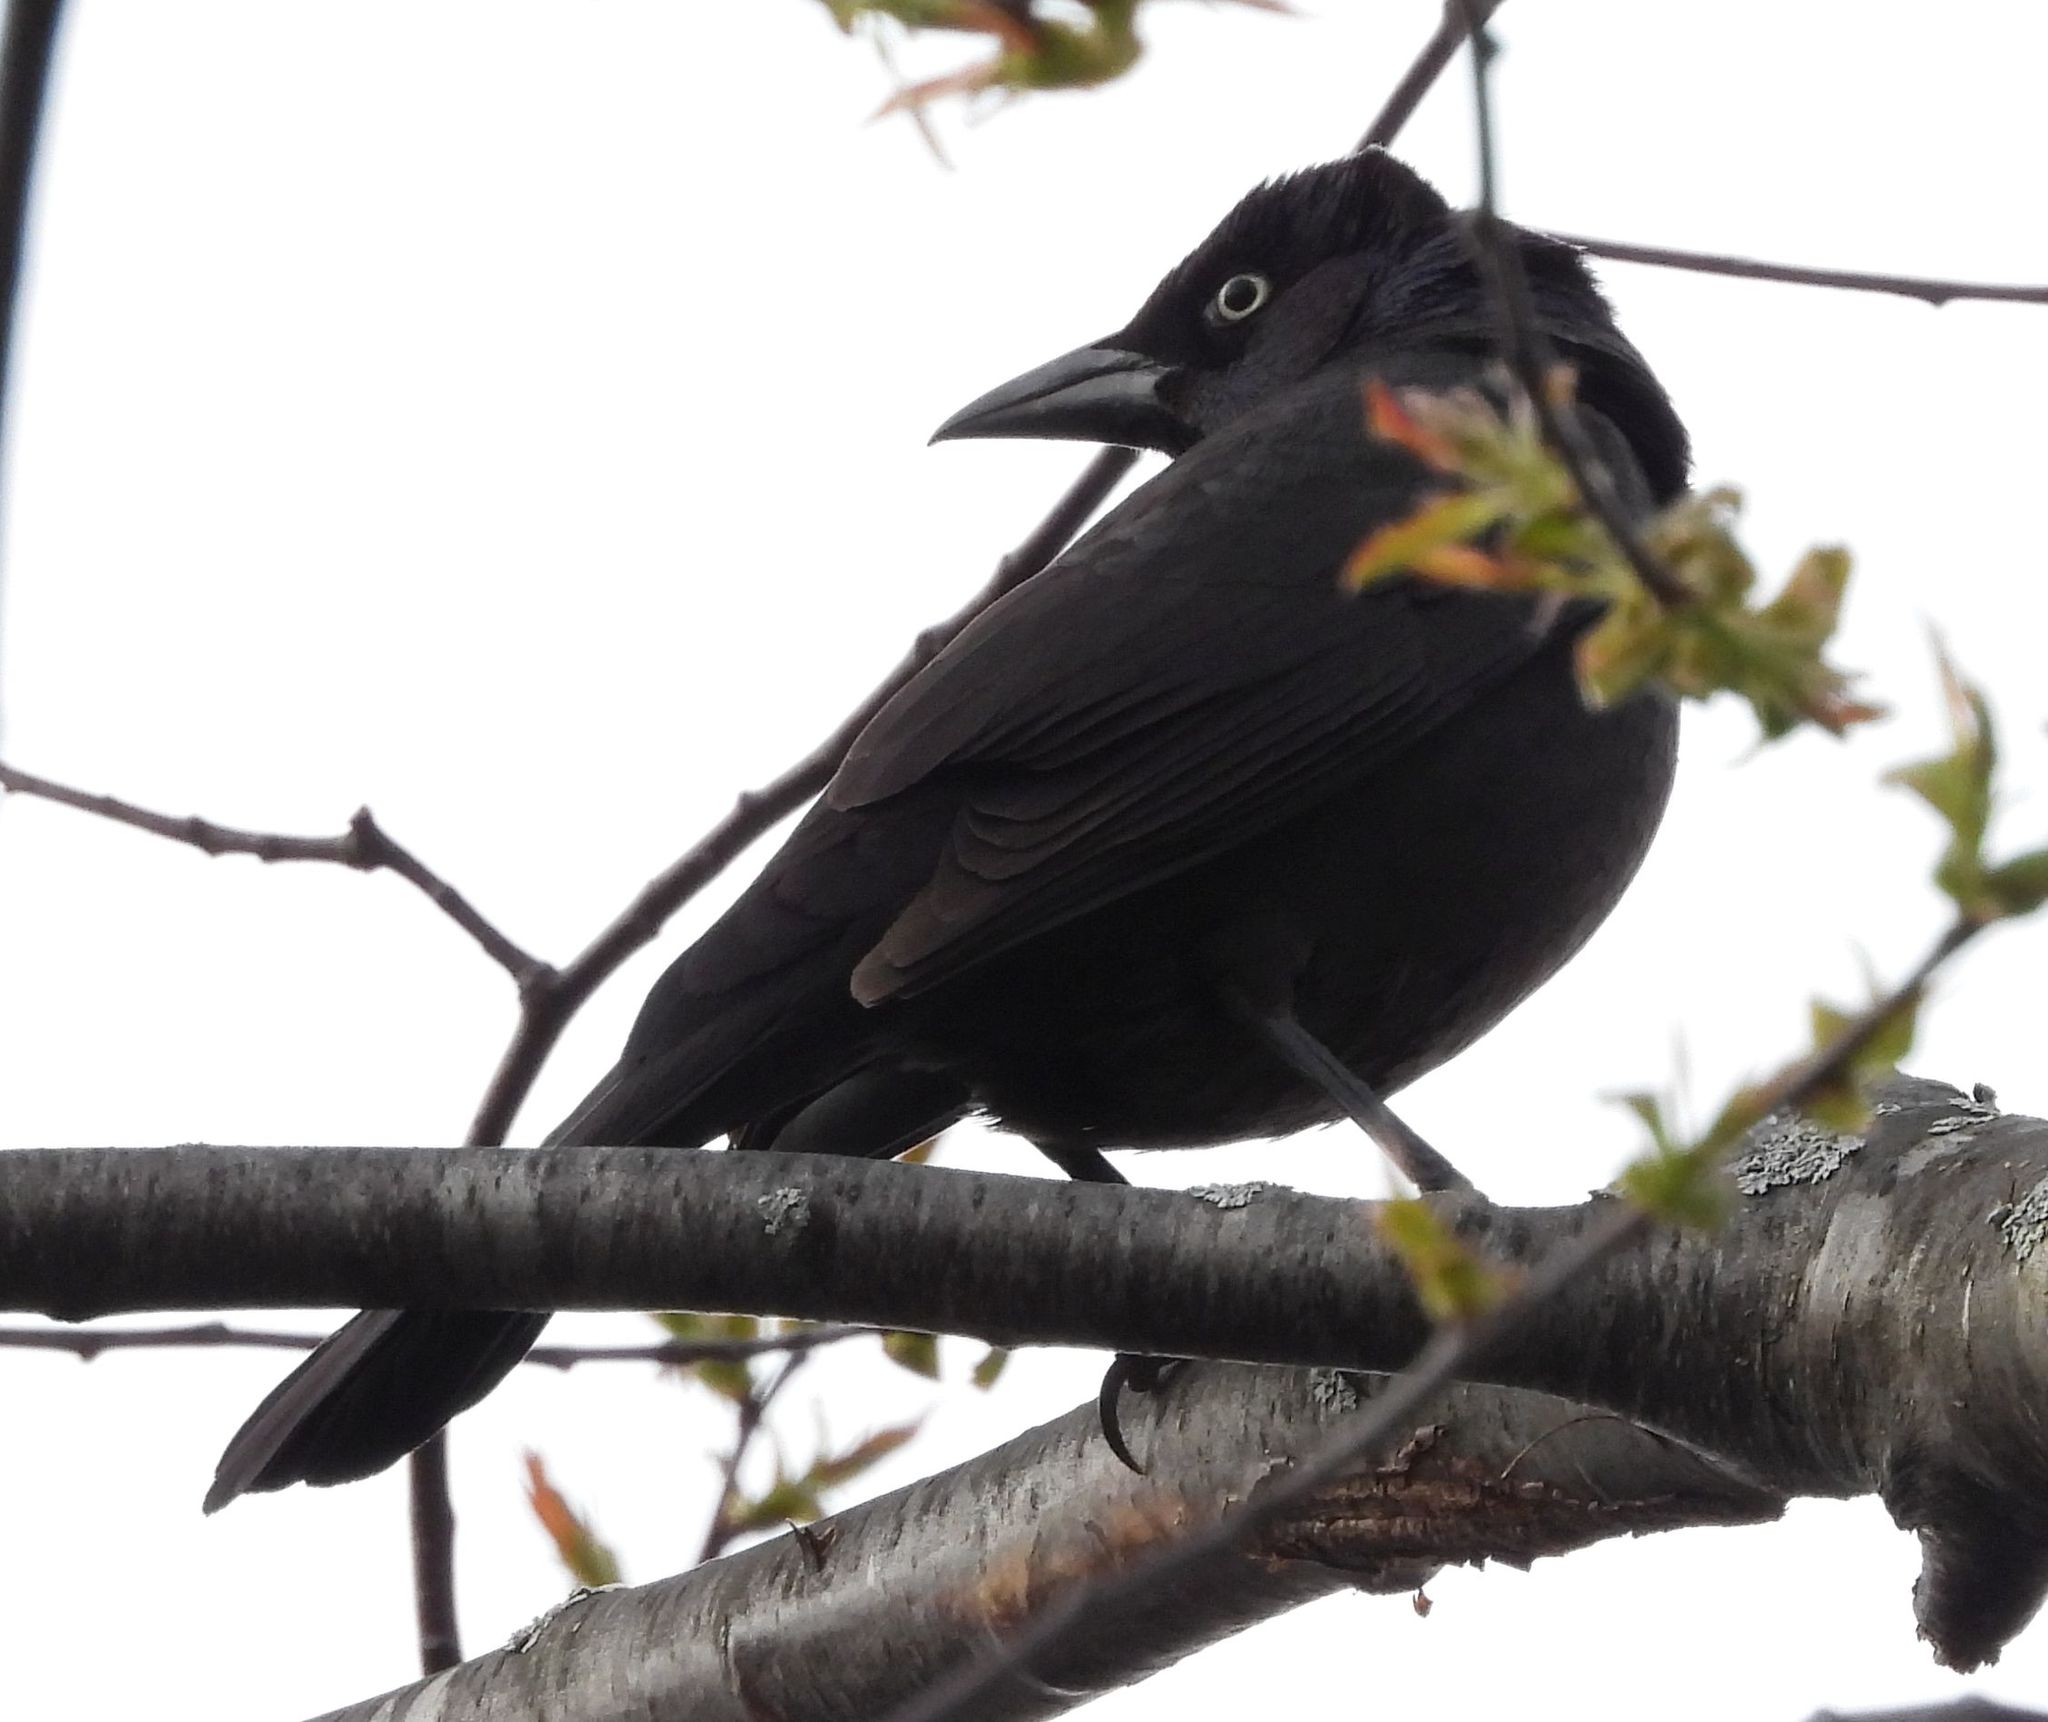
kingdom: Animalia
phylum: Chordata
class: Aves
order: Passeriformes
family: Icteridae
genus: Quiscalus
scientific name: Quiscalus quiscula
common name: Common grackle
